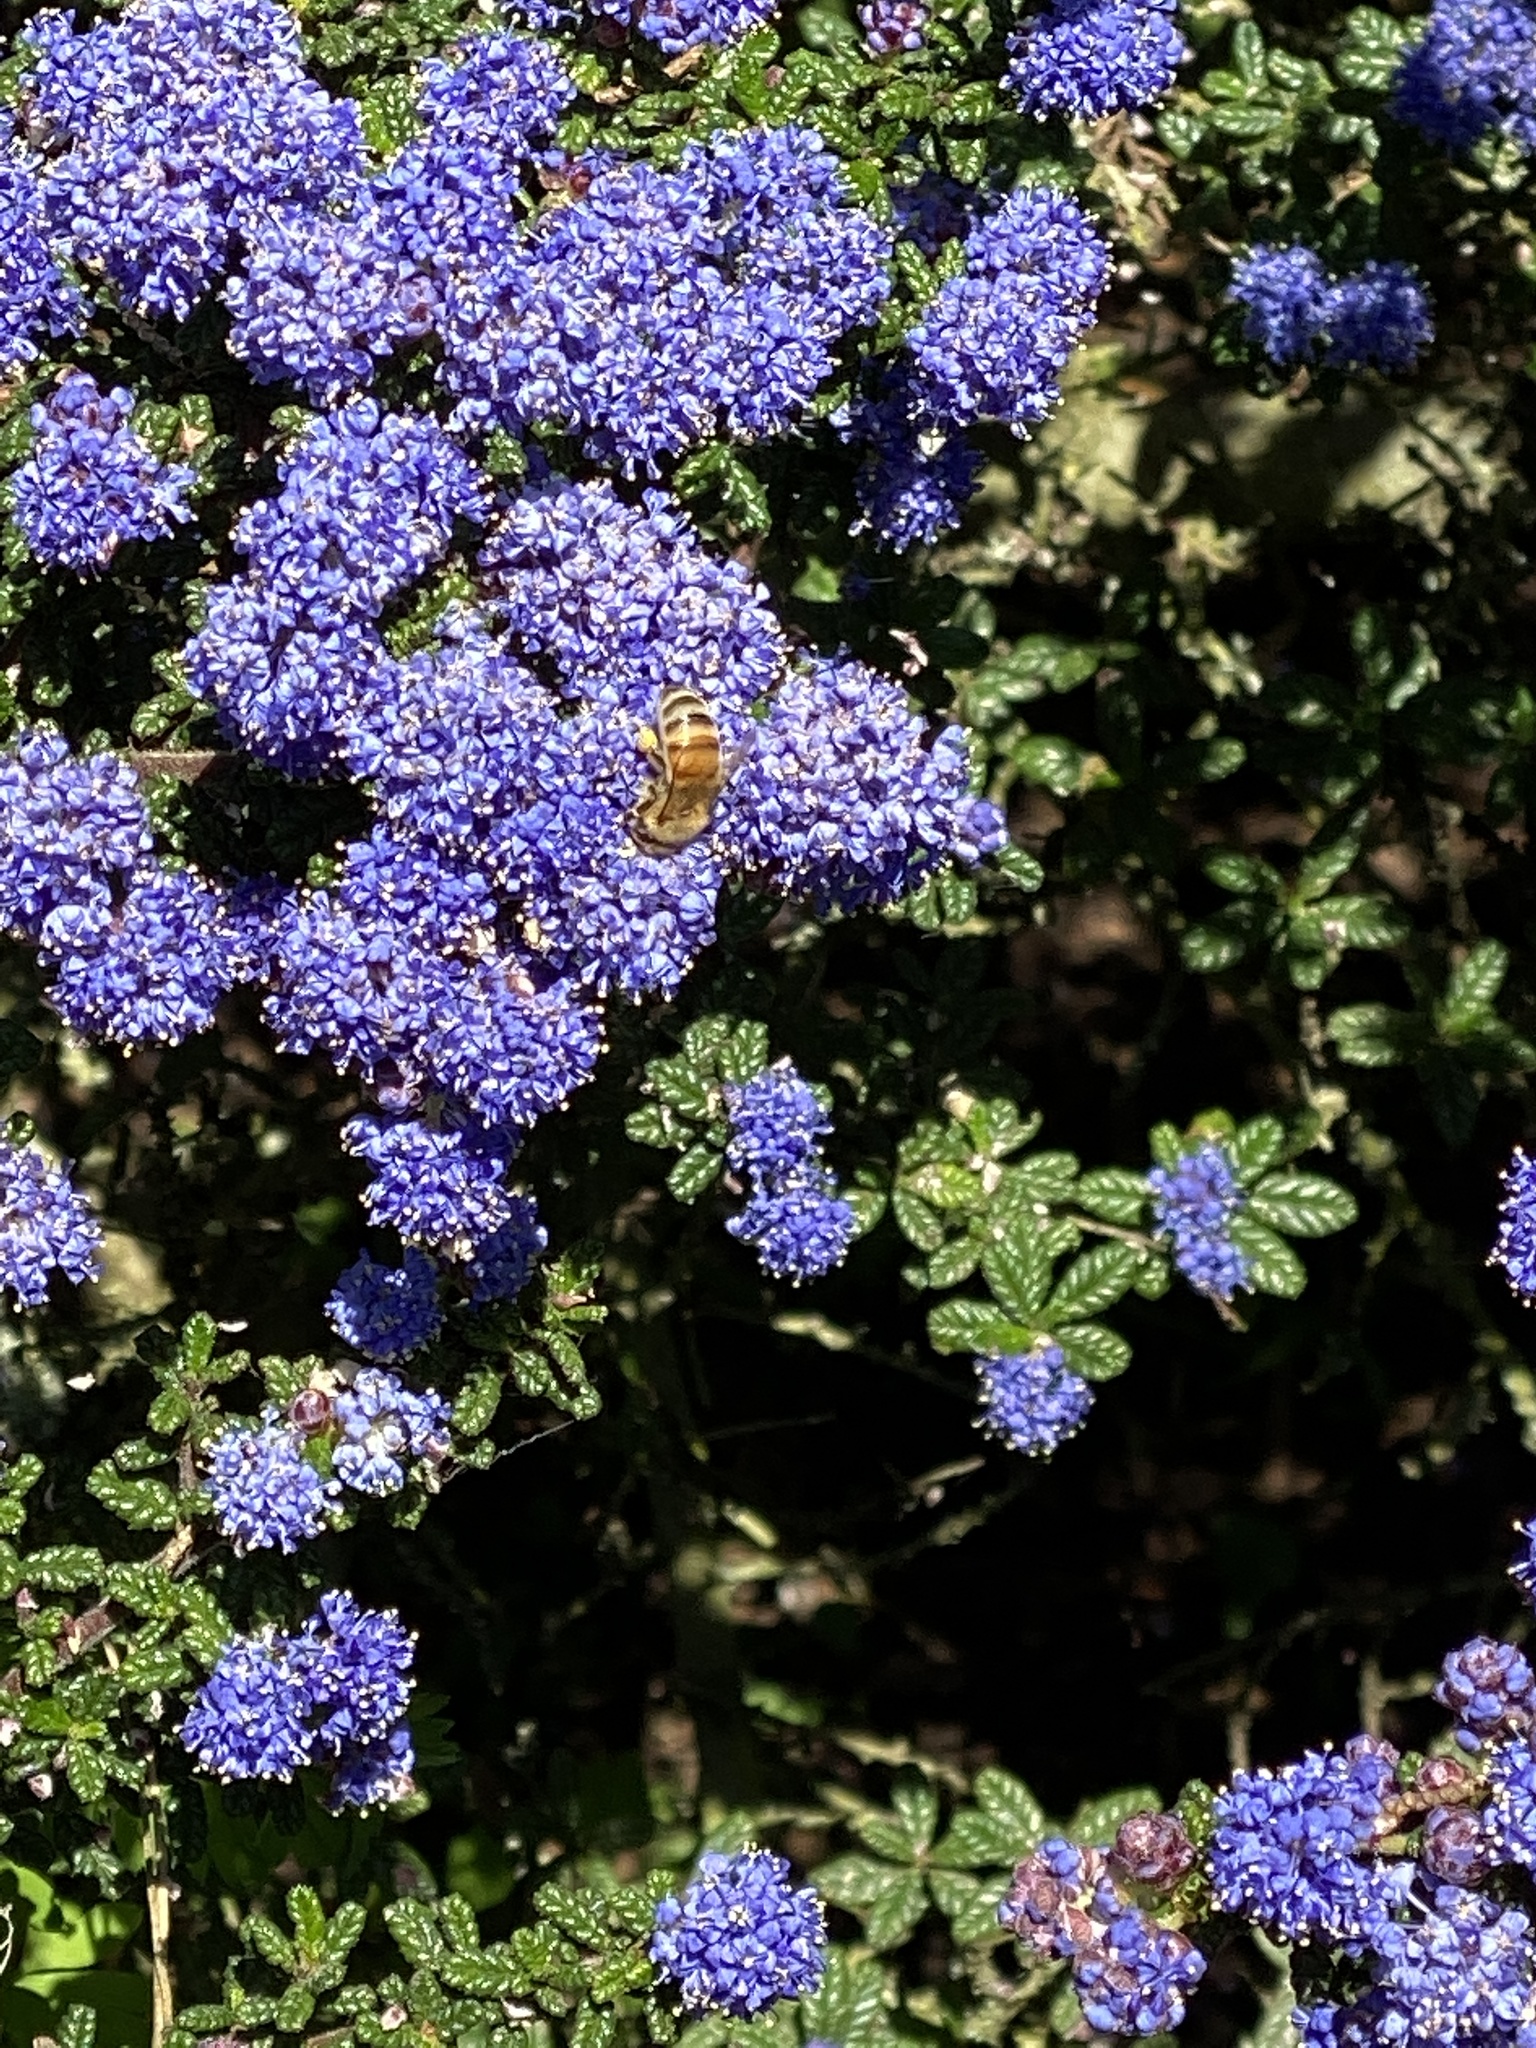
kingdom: Animalia
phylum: Arthropoda
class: Insecta
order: Hymenoptera
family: Apidae
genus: Apis
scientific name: Apis mellifera
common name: Honey bee
